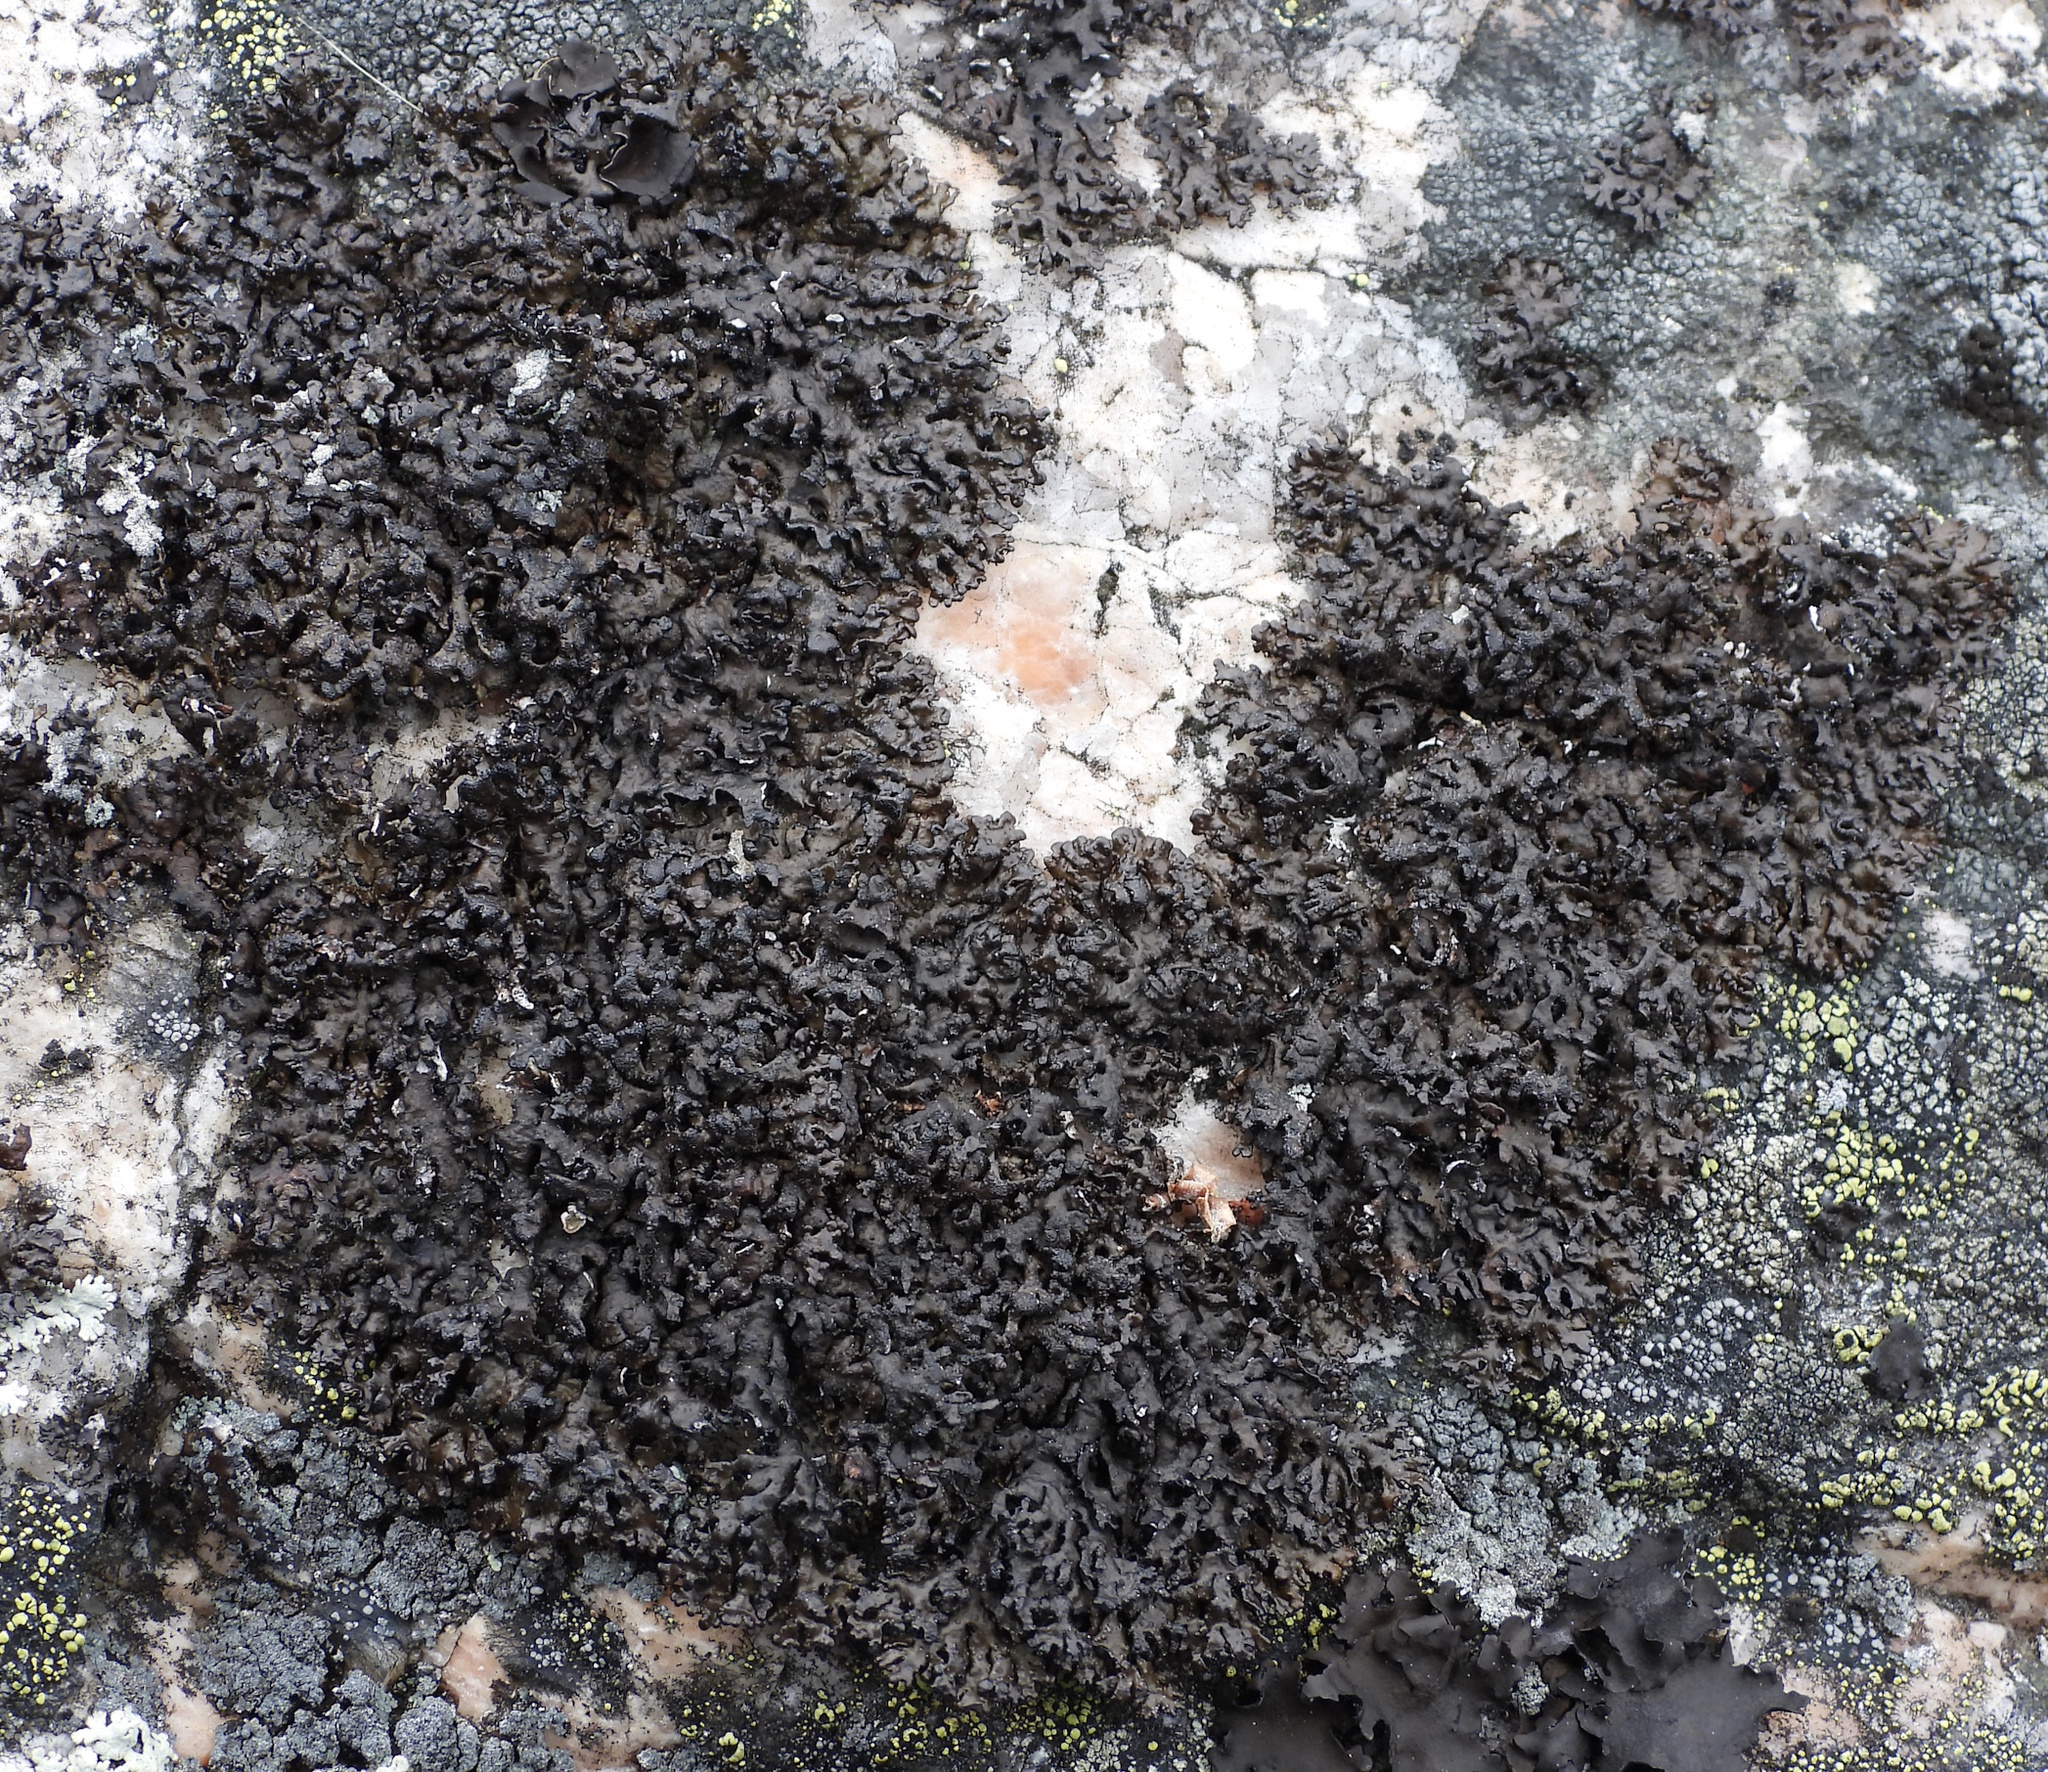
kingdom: Fungi
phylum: Ascomycota
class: Lecanoromycetes
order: Lecanorales
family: Parmeliaceae
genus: Melanelia
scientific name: Melanelia stygia
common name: Alpine camouflage lichen
